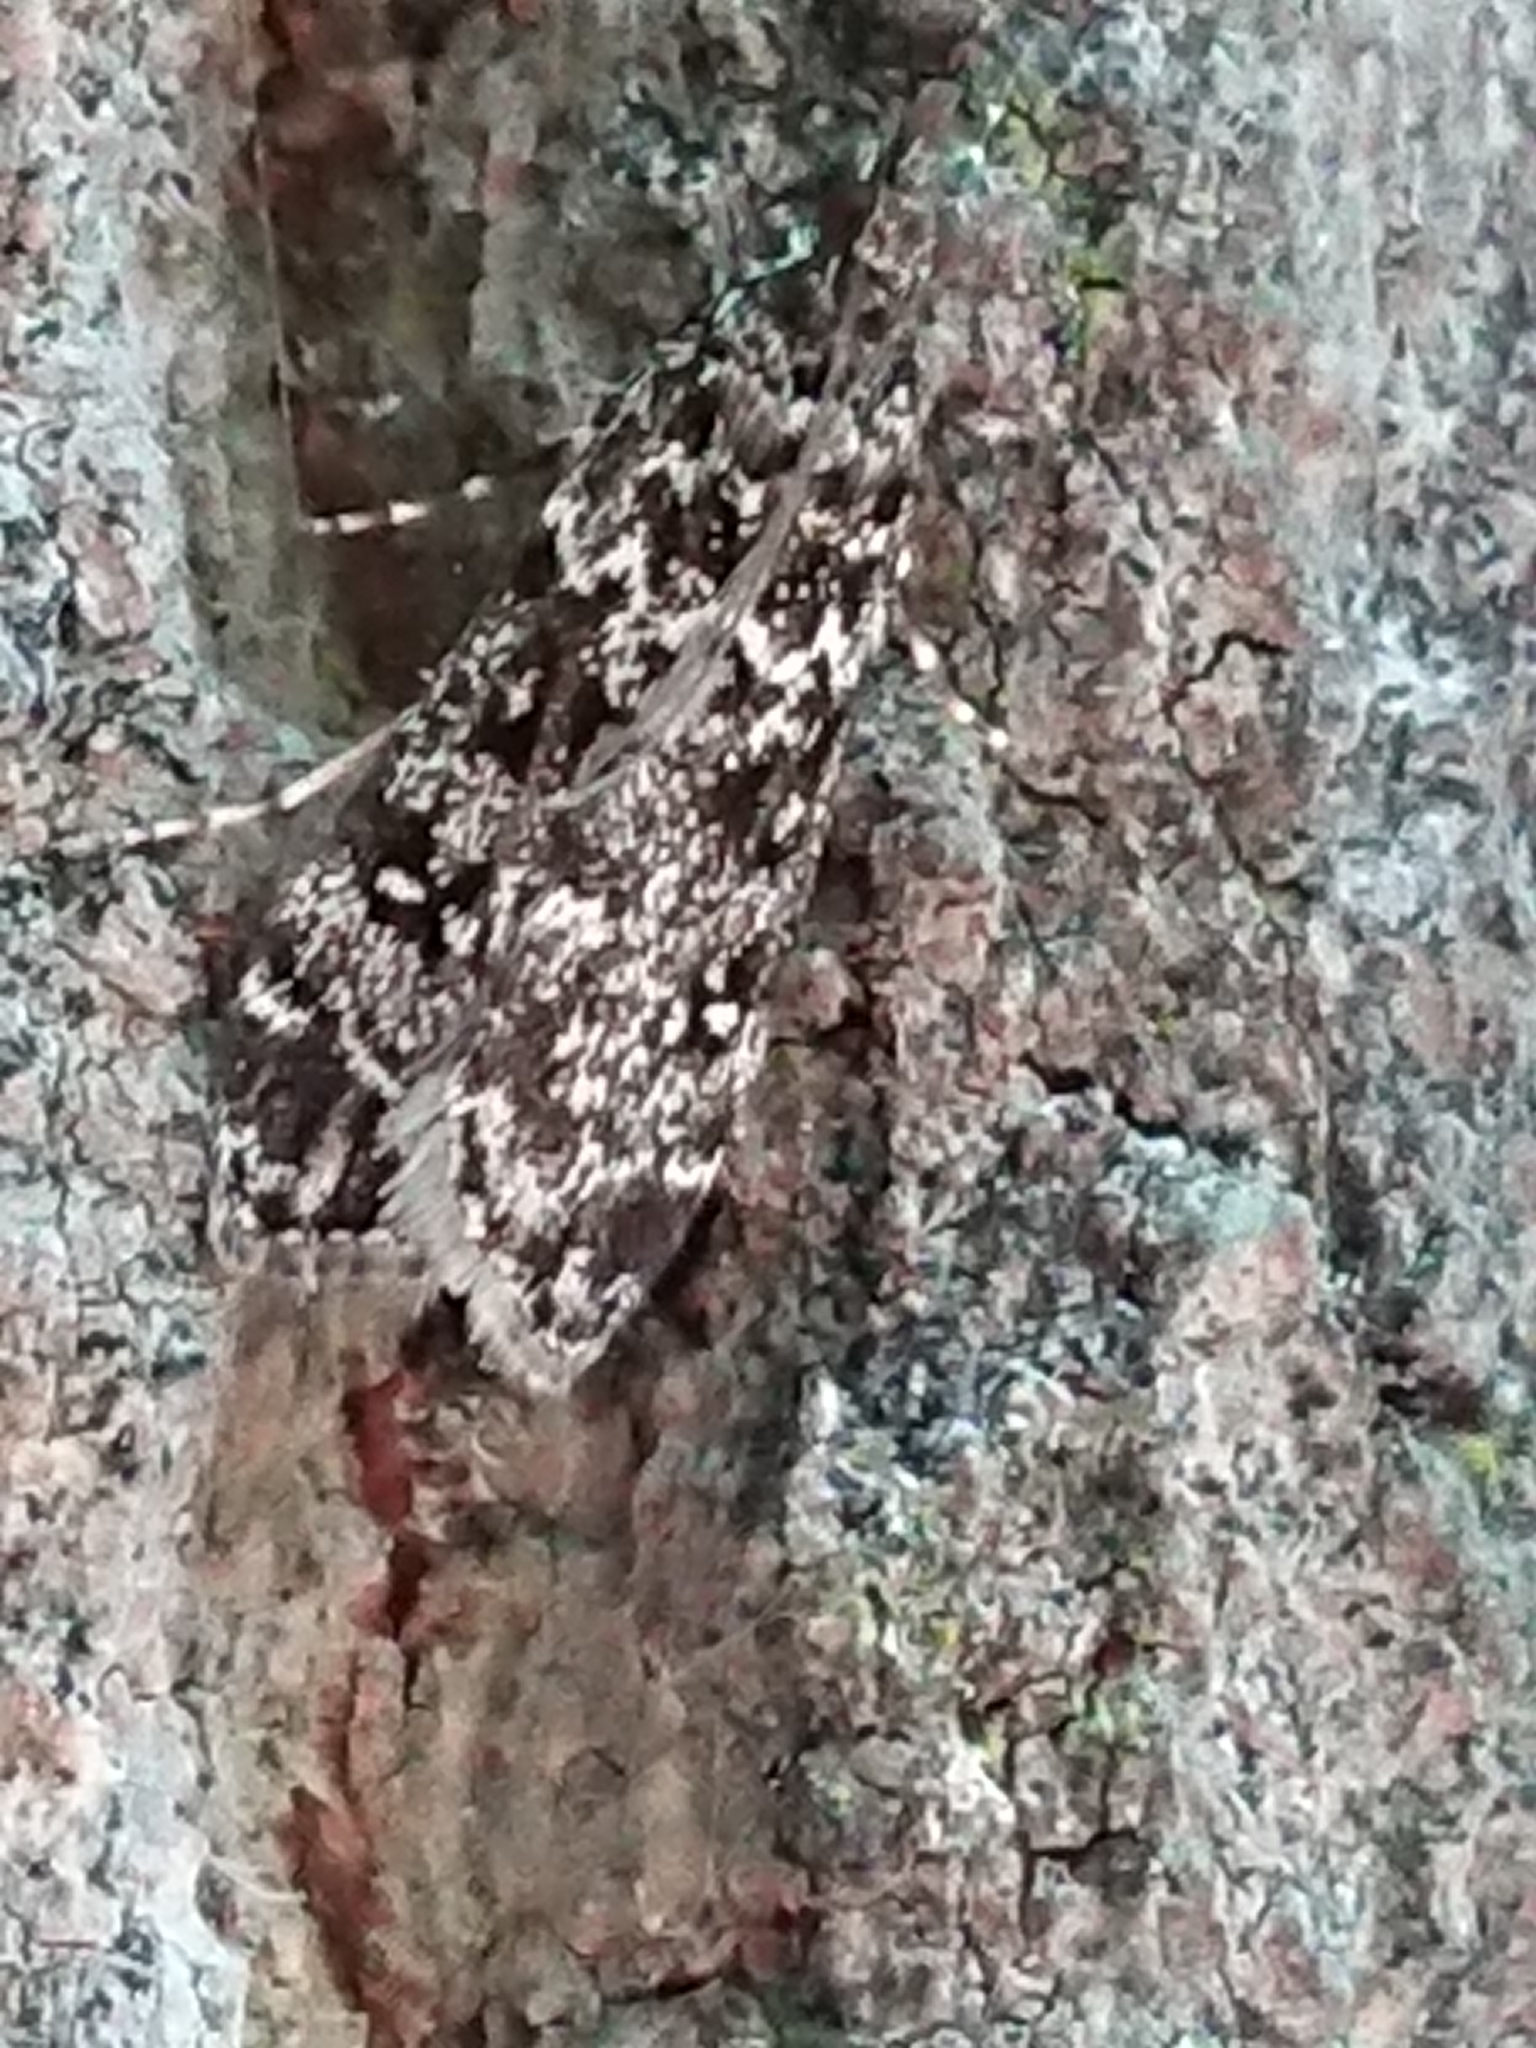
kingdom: Animalia
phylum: Arthropoda
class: Insecta
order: Lepidoptera
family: Crambidae
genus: Eudonia
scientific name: Eudonia philerga
